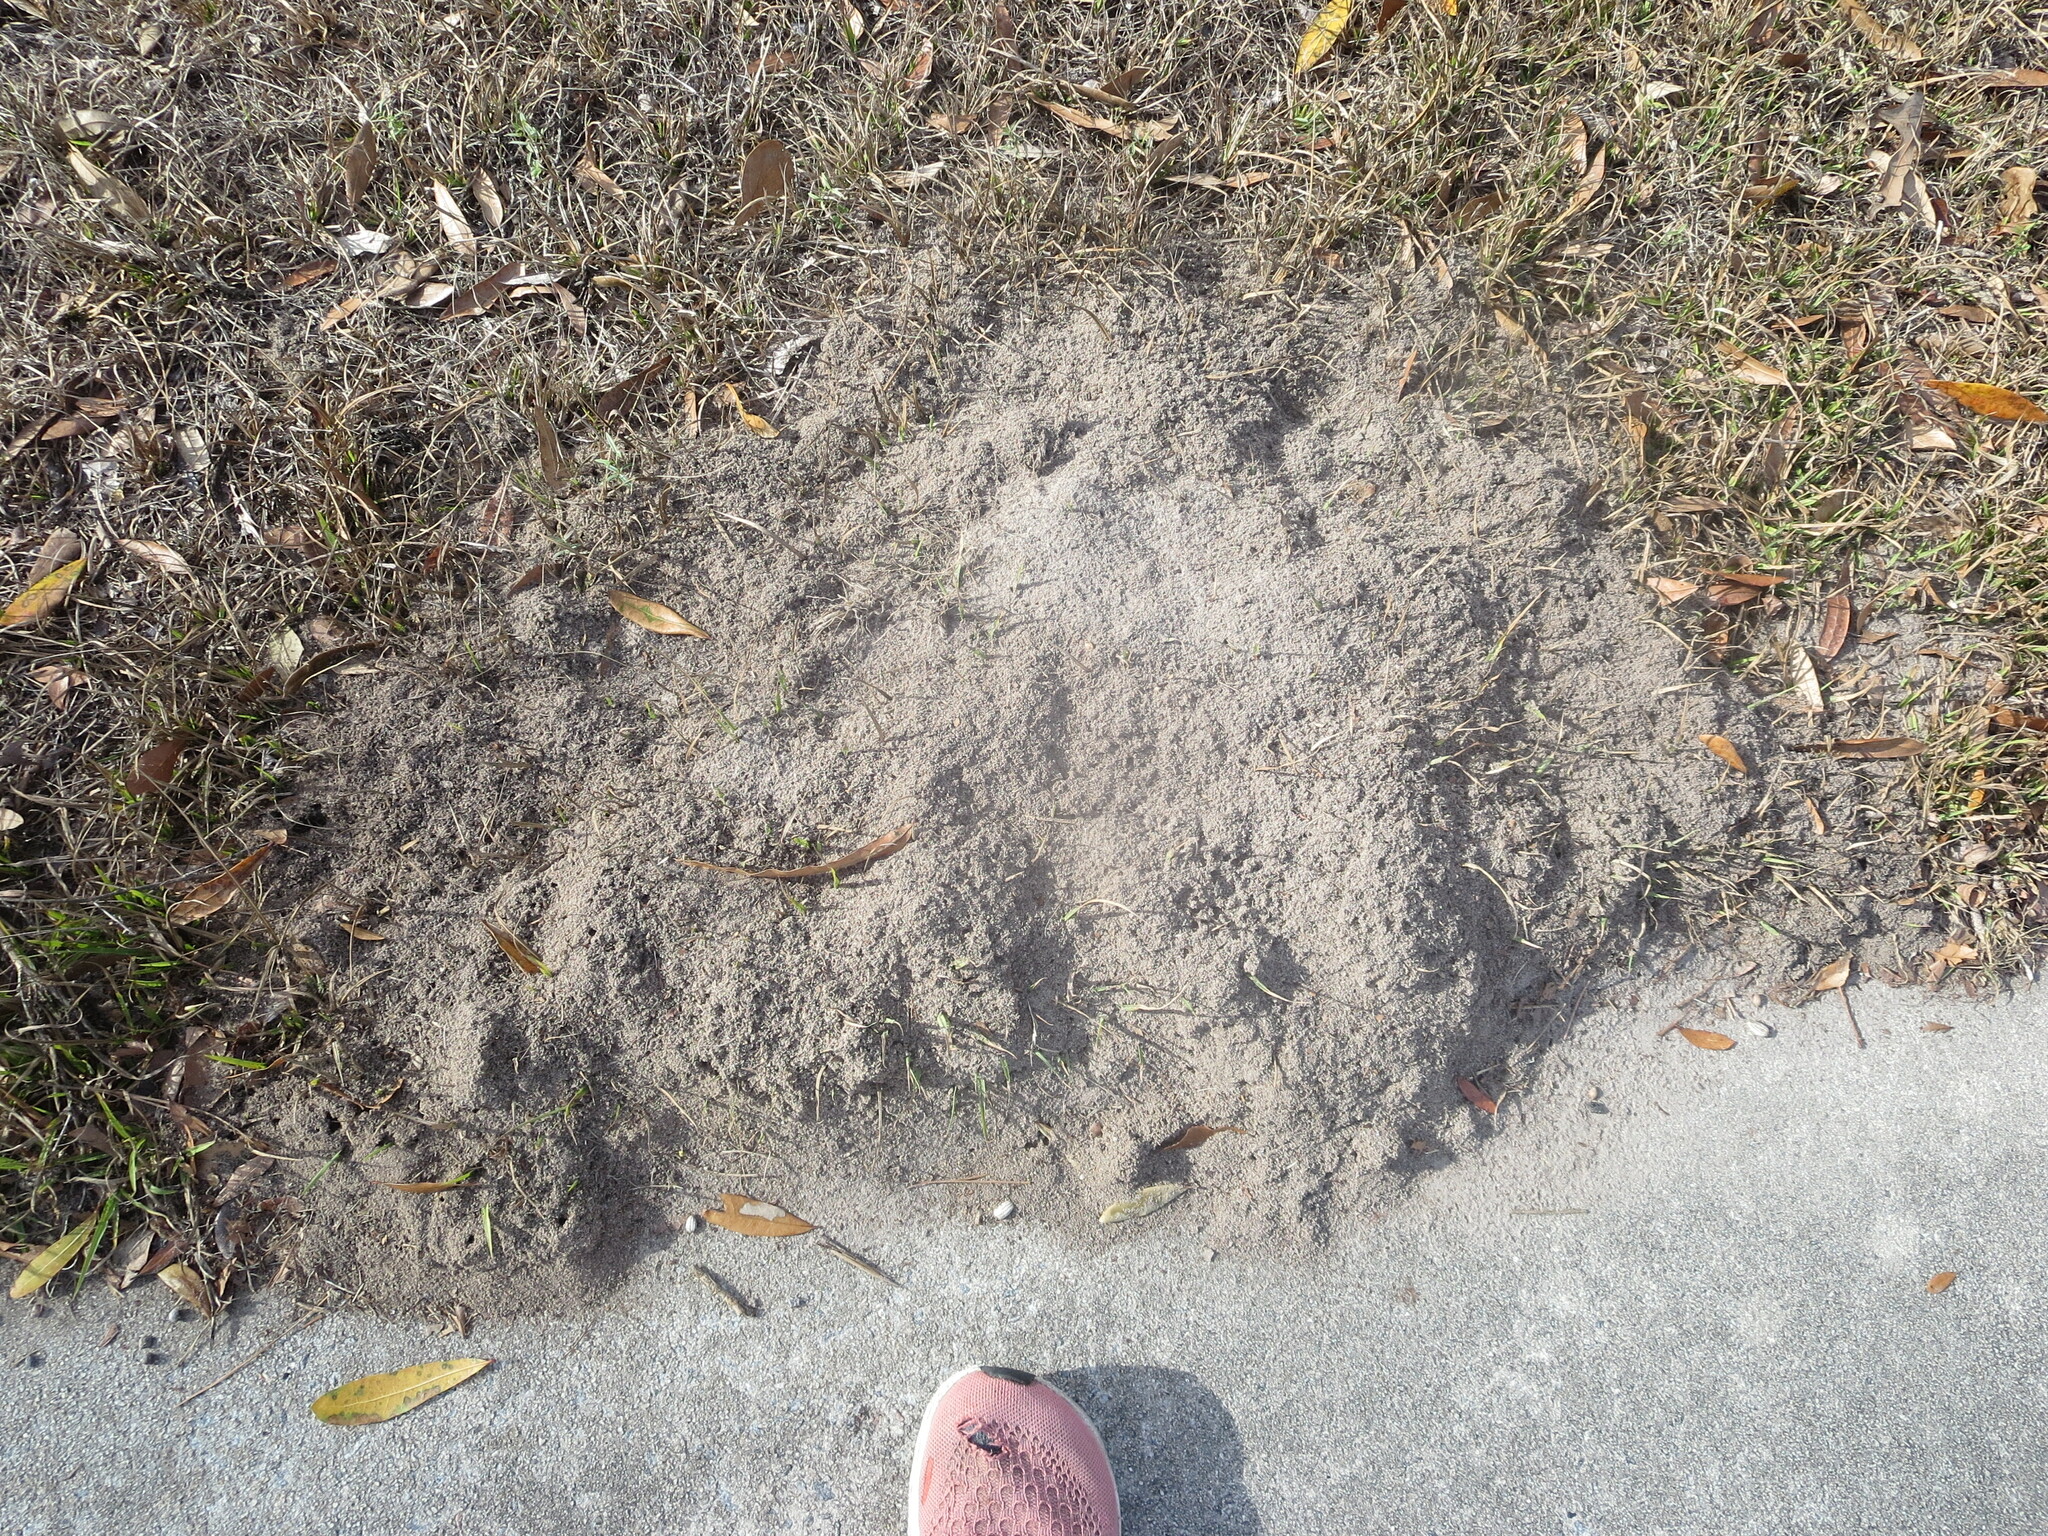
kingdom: Animalia
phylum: Arthropoda
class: Insecta
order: Hymenoptera
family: Formicidae
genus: Solenopsis
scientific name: Solenopsis invicta
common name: Red imported fire ant
